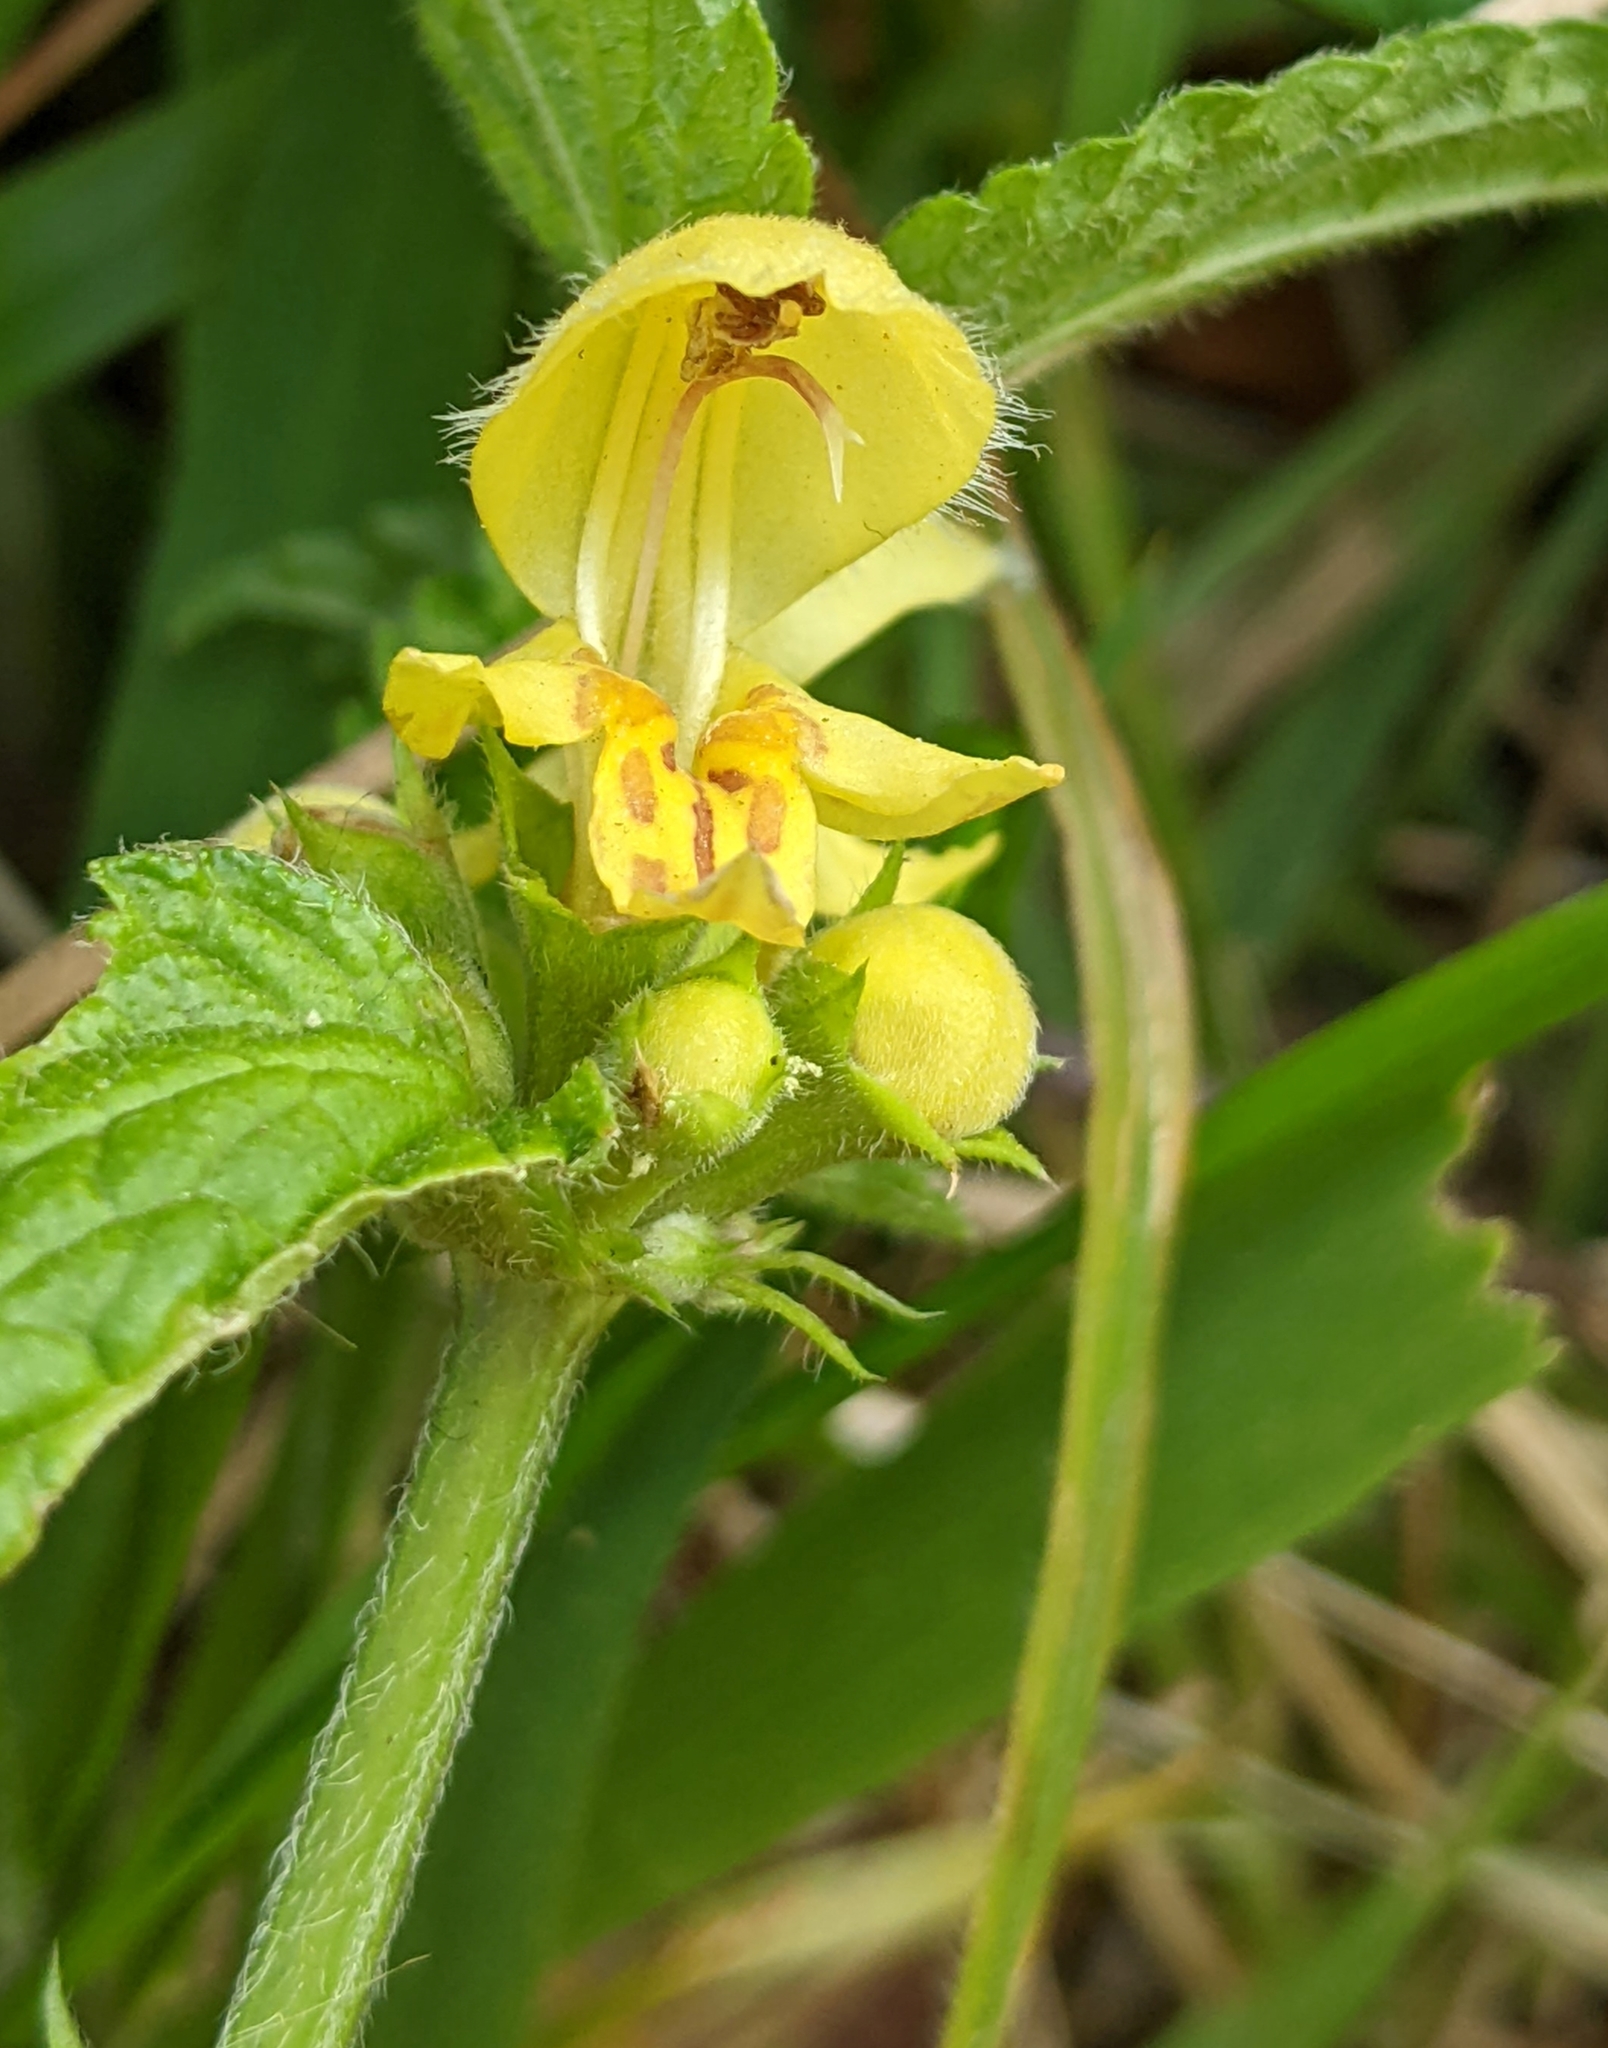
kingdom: Plantae
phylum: Tracheophyta
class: Magnoliopsida
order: Lamiales
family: Lamiaceae
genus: Lamium
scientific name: Lamium galeobdolon
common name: Yellow archangel
